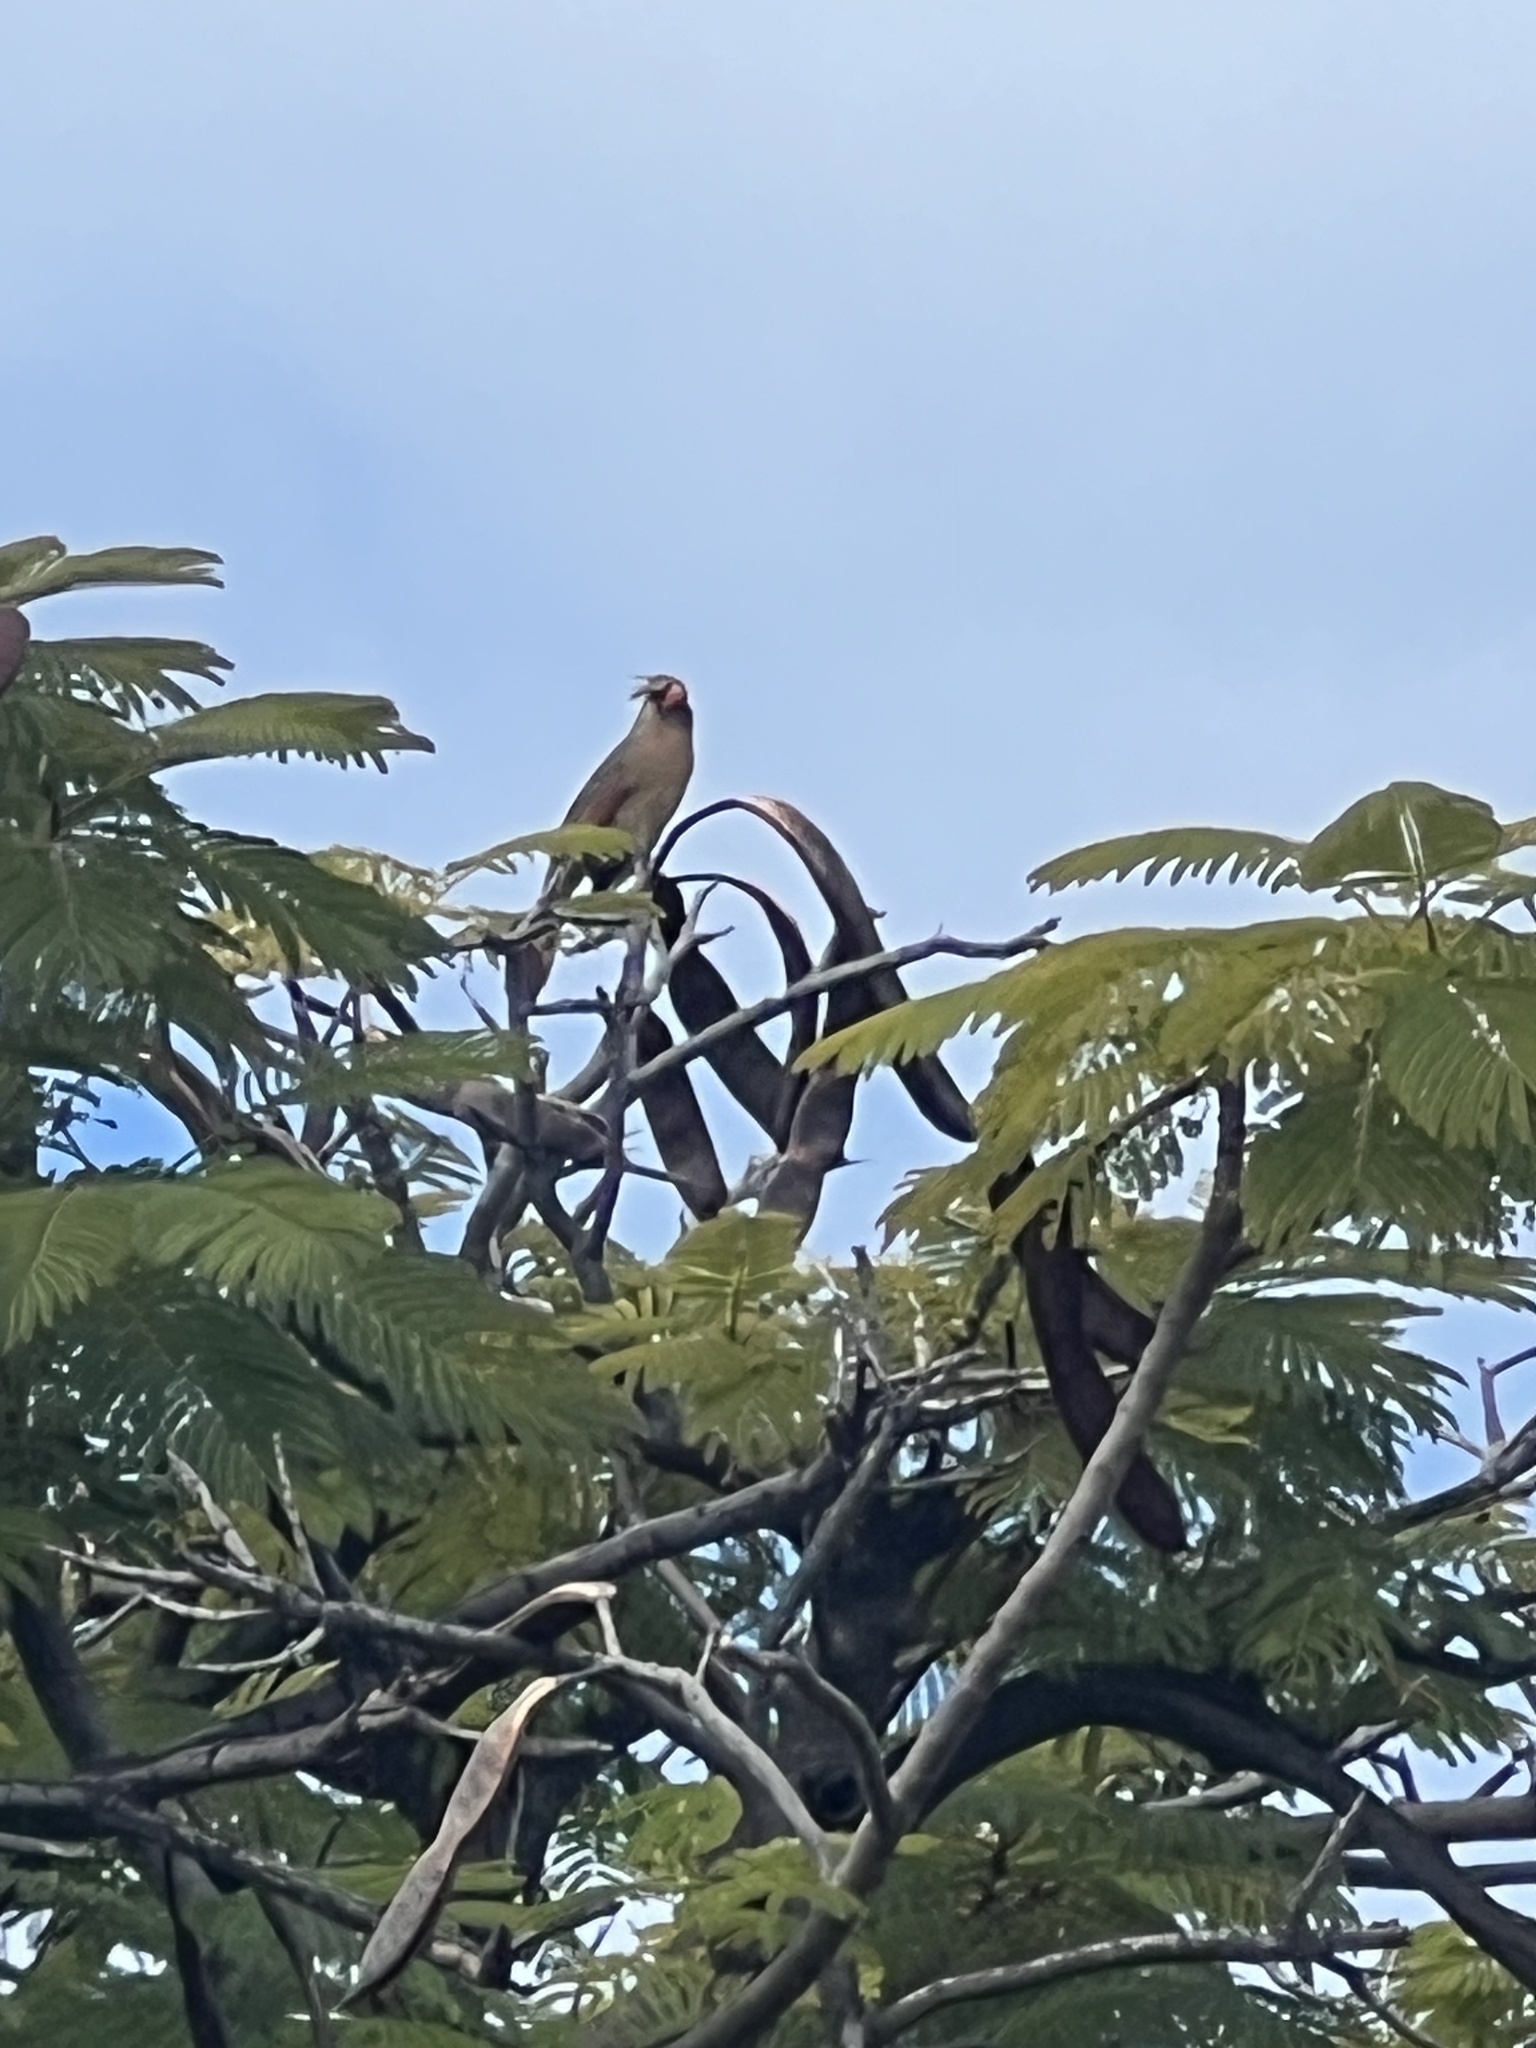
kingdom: Animalia
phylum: Chordata
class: Aves
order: Passeriformes
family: Cardinalidae
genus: Cardinalis
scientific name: Cardinalis cardinalis
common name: Northern cardinal
